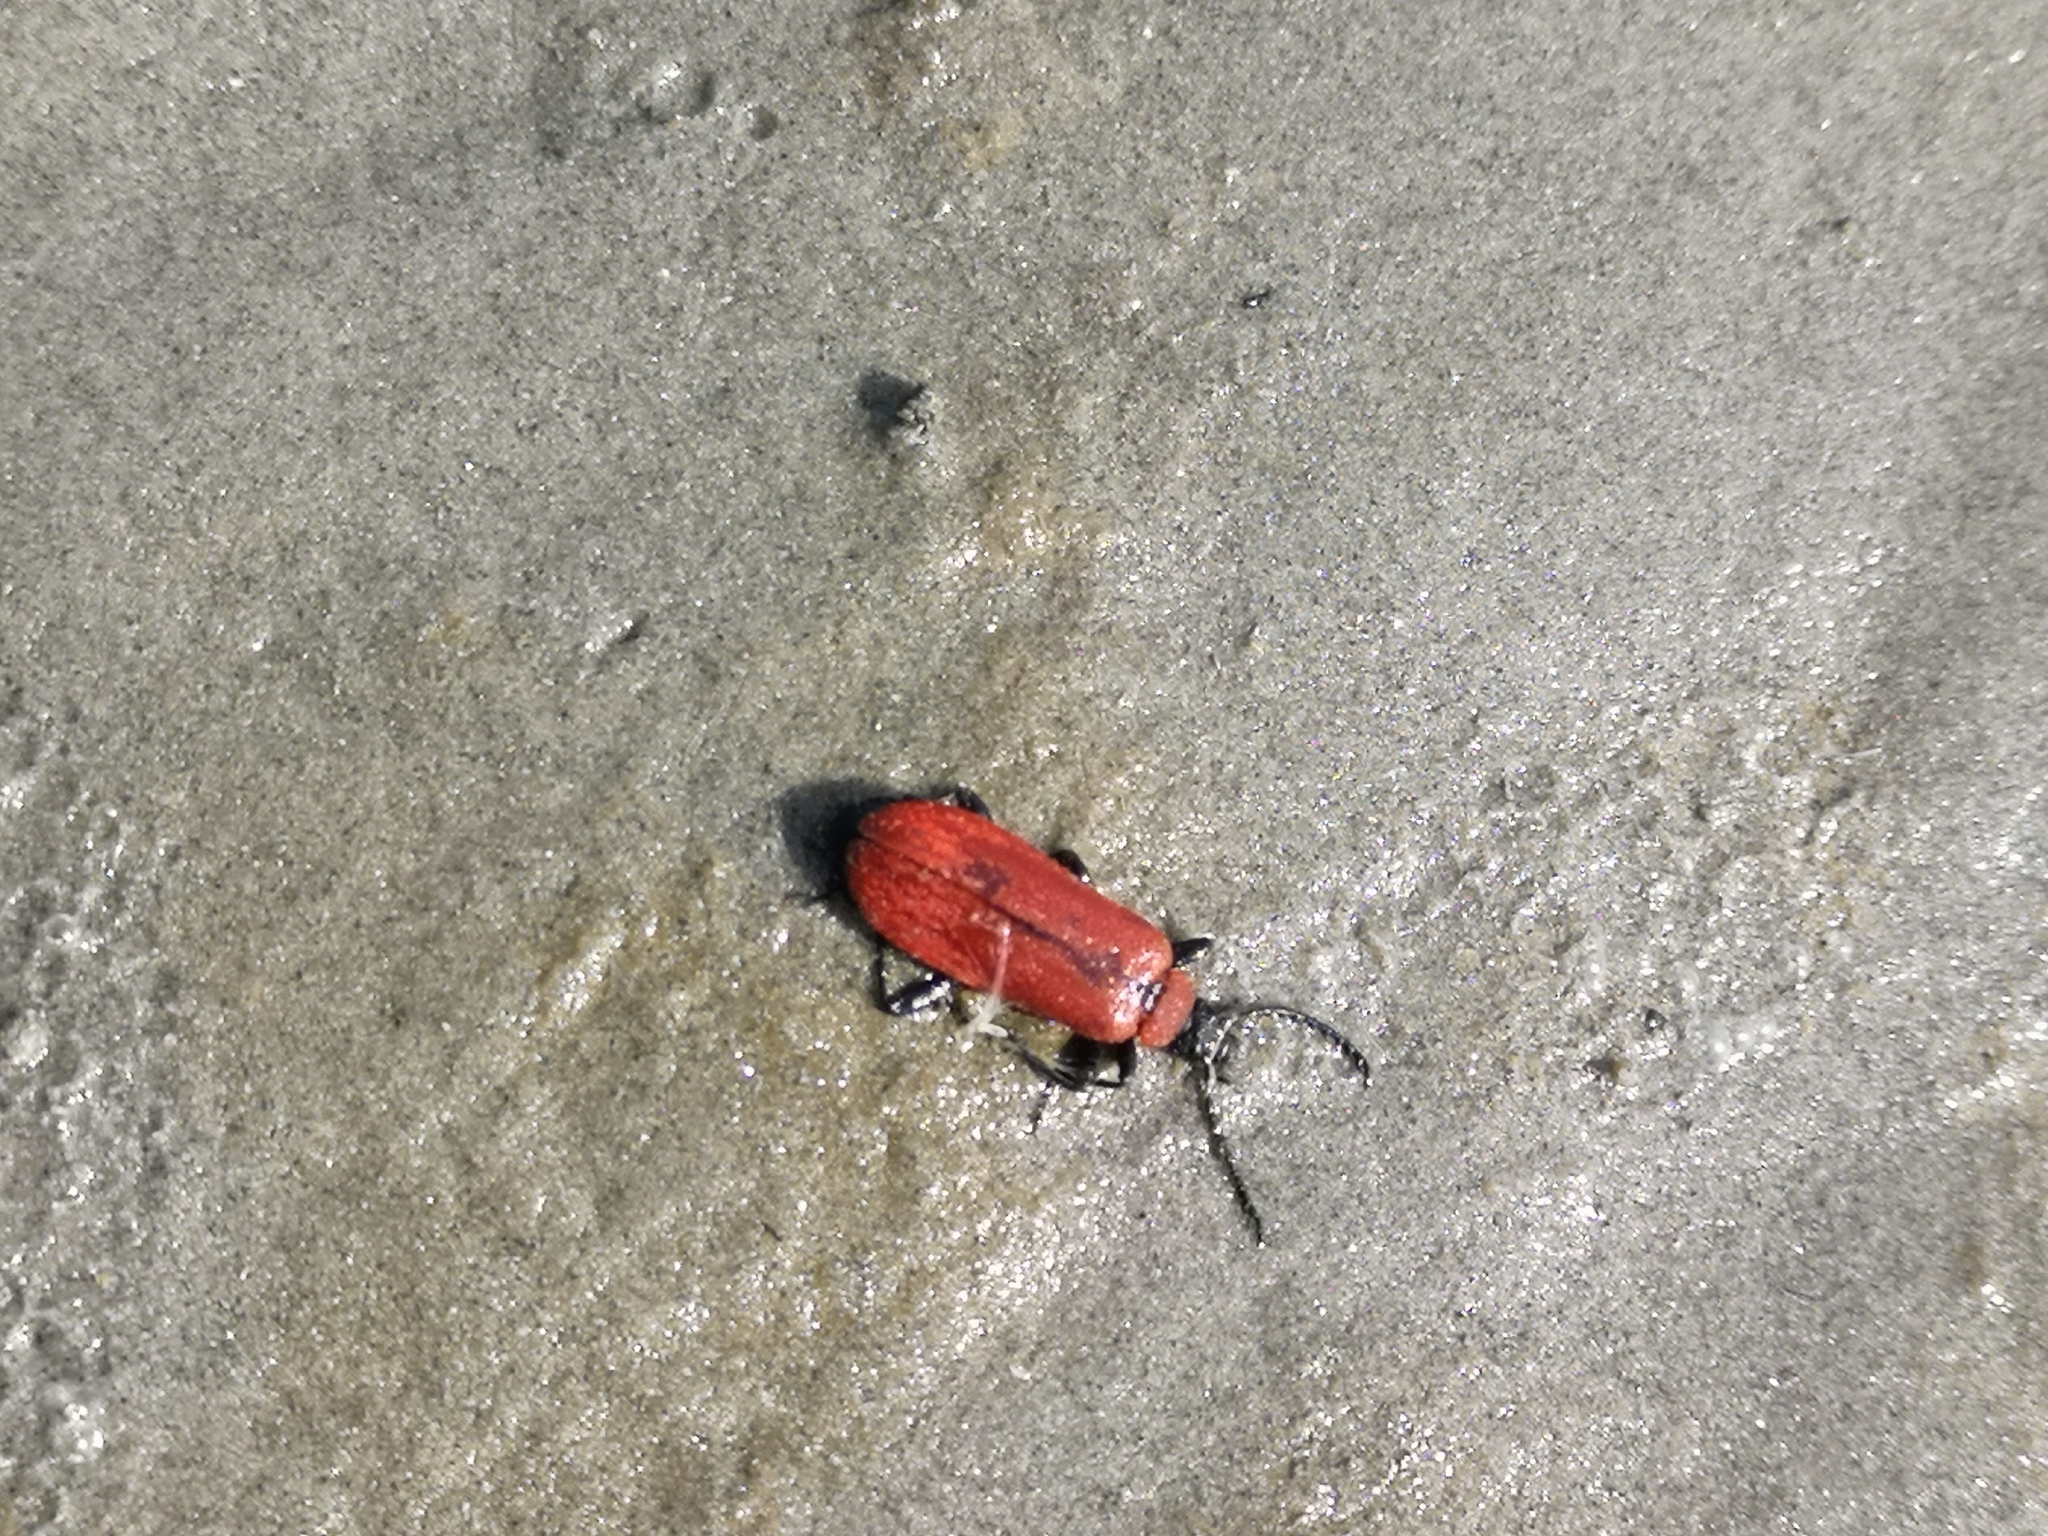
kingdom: Animalia
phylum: Arthropoda
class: Insecta
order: Coleoptera
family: Pyrochroidae
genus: Pyrochroa
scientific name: Pyrochroa coccinea
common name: Black-headed cardinal beetle
